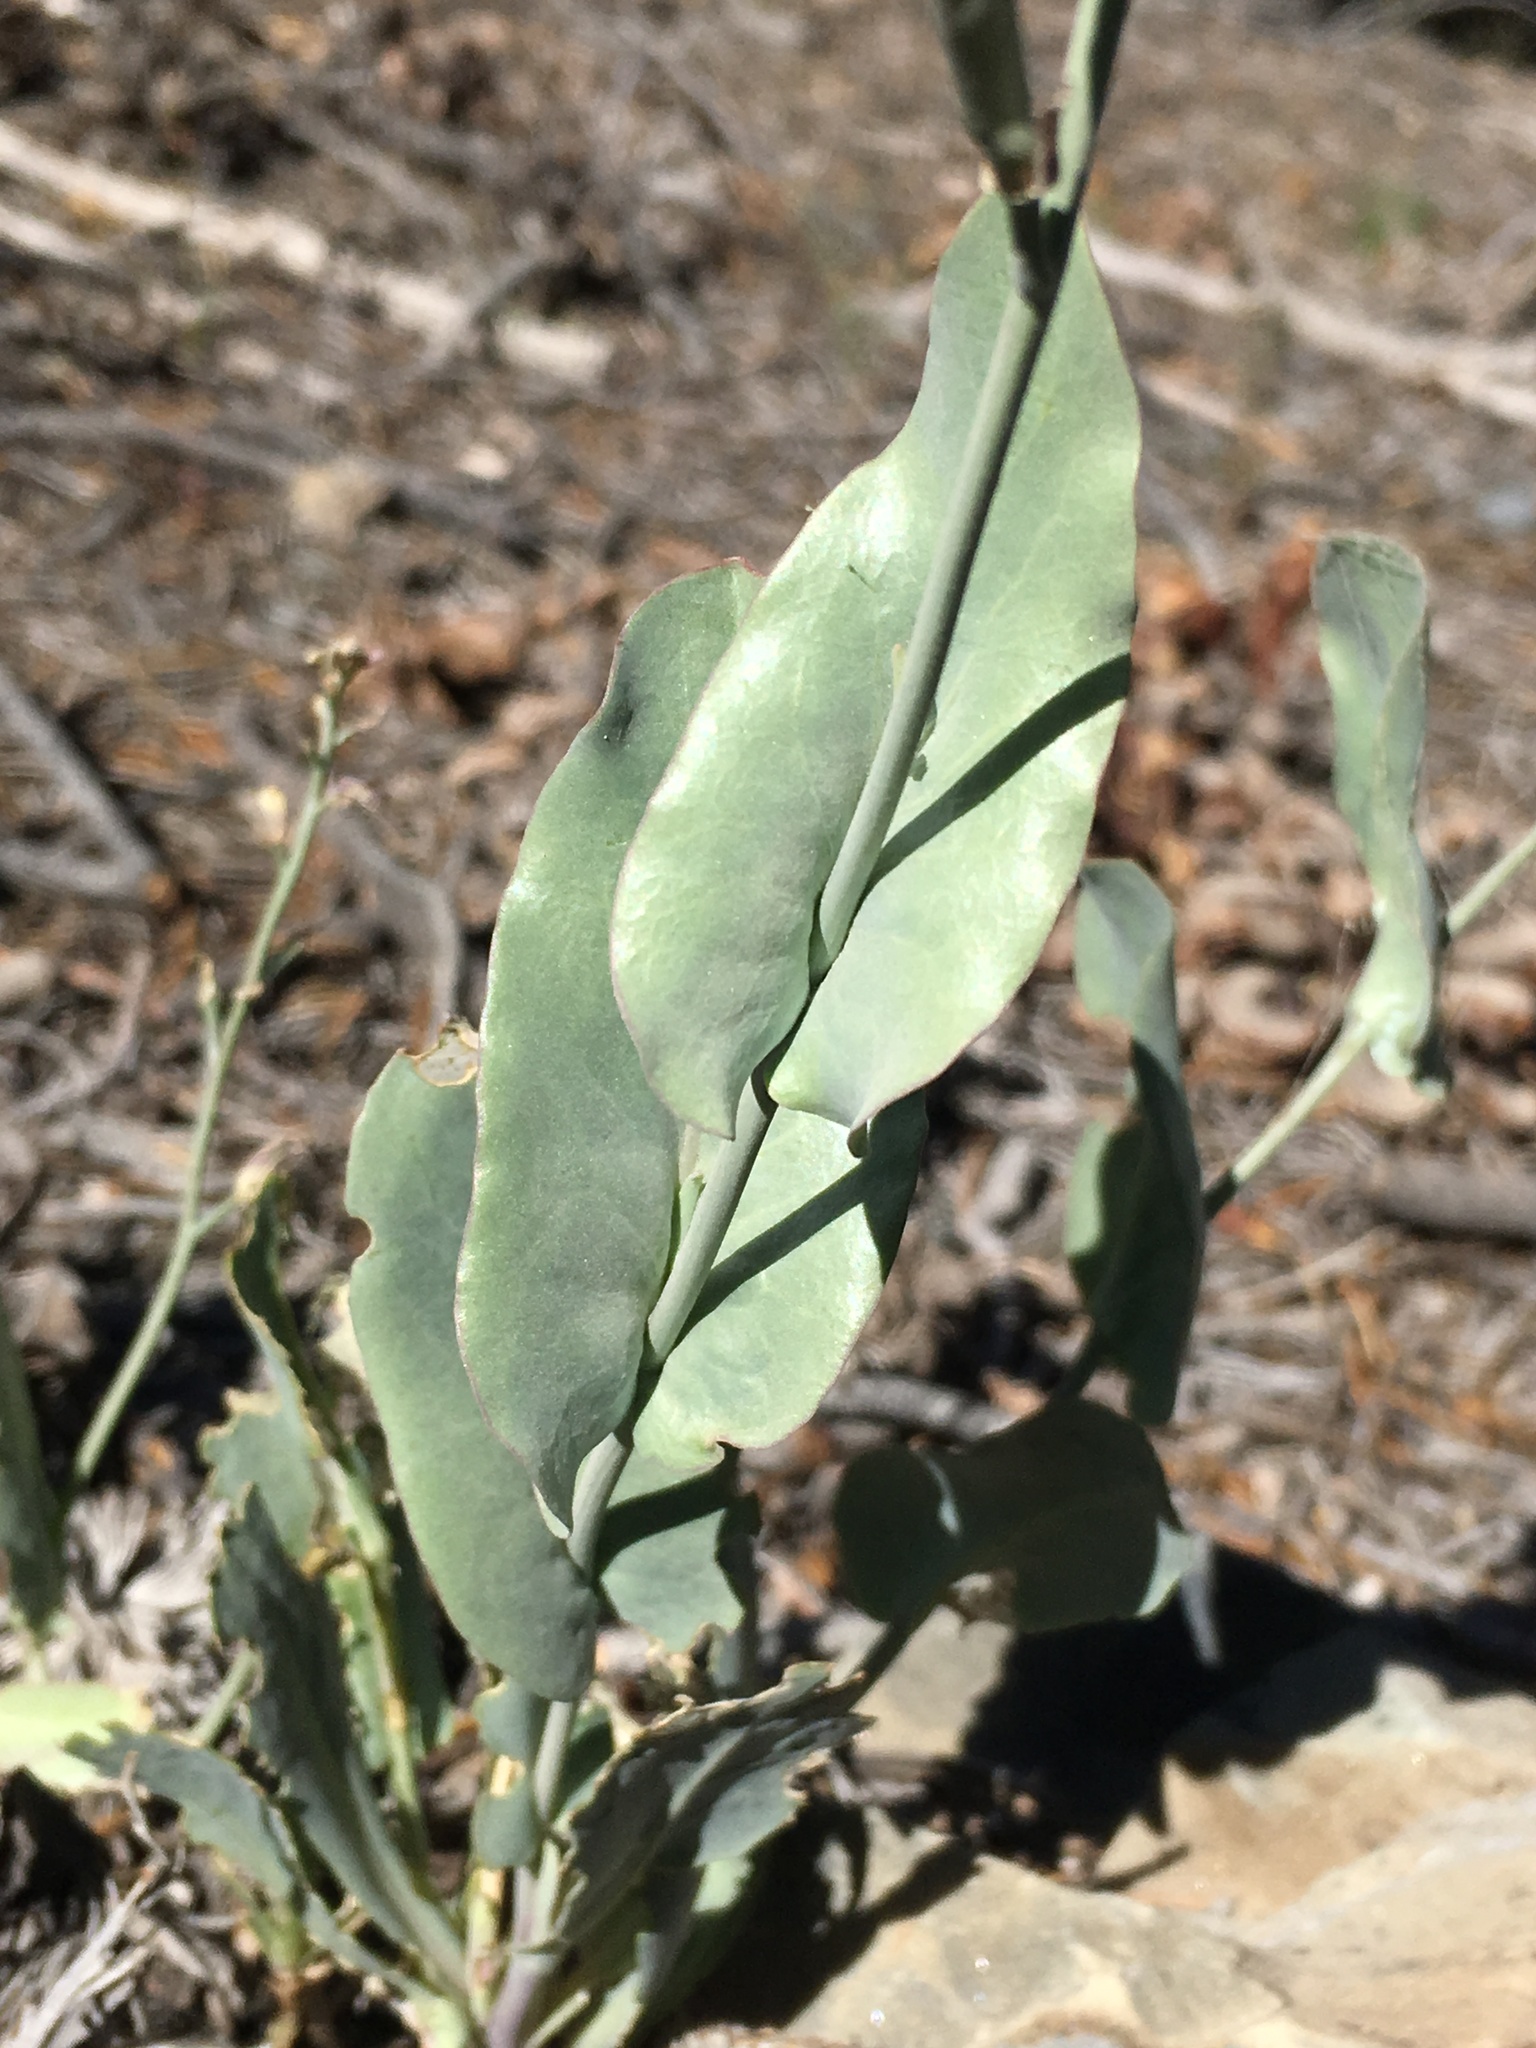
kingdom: Plantae
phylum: Tracheophyta
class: Magnoliopsida
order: Brassicales
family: Brassicaceae
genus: Streptanthus
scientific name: Streptanthus cordatus
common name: Heart-leaf jewel-flower
